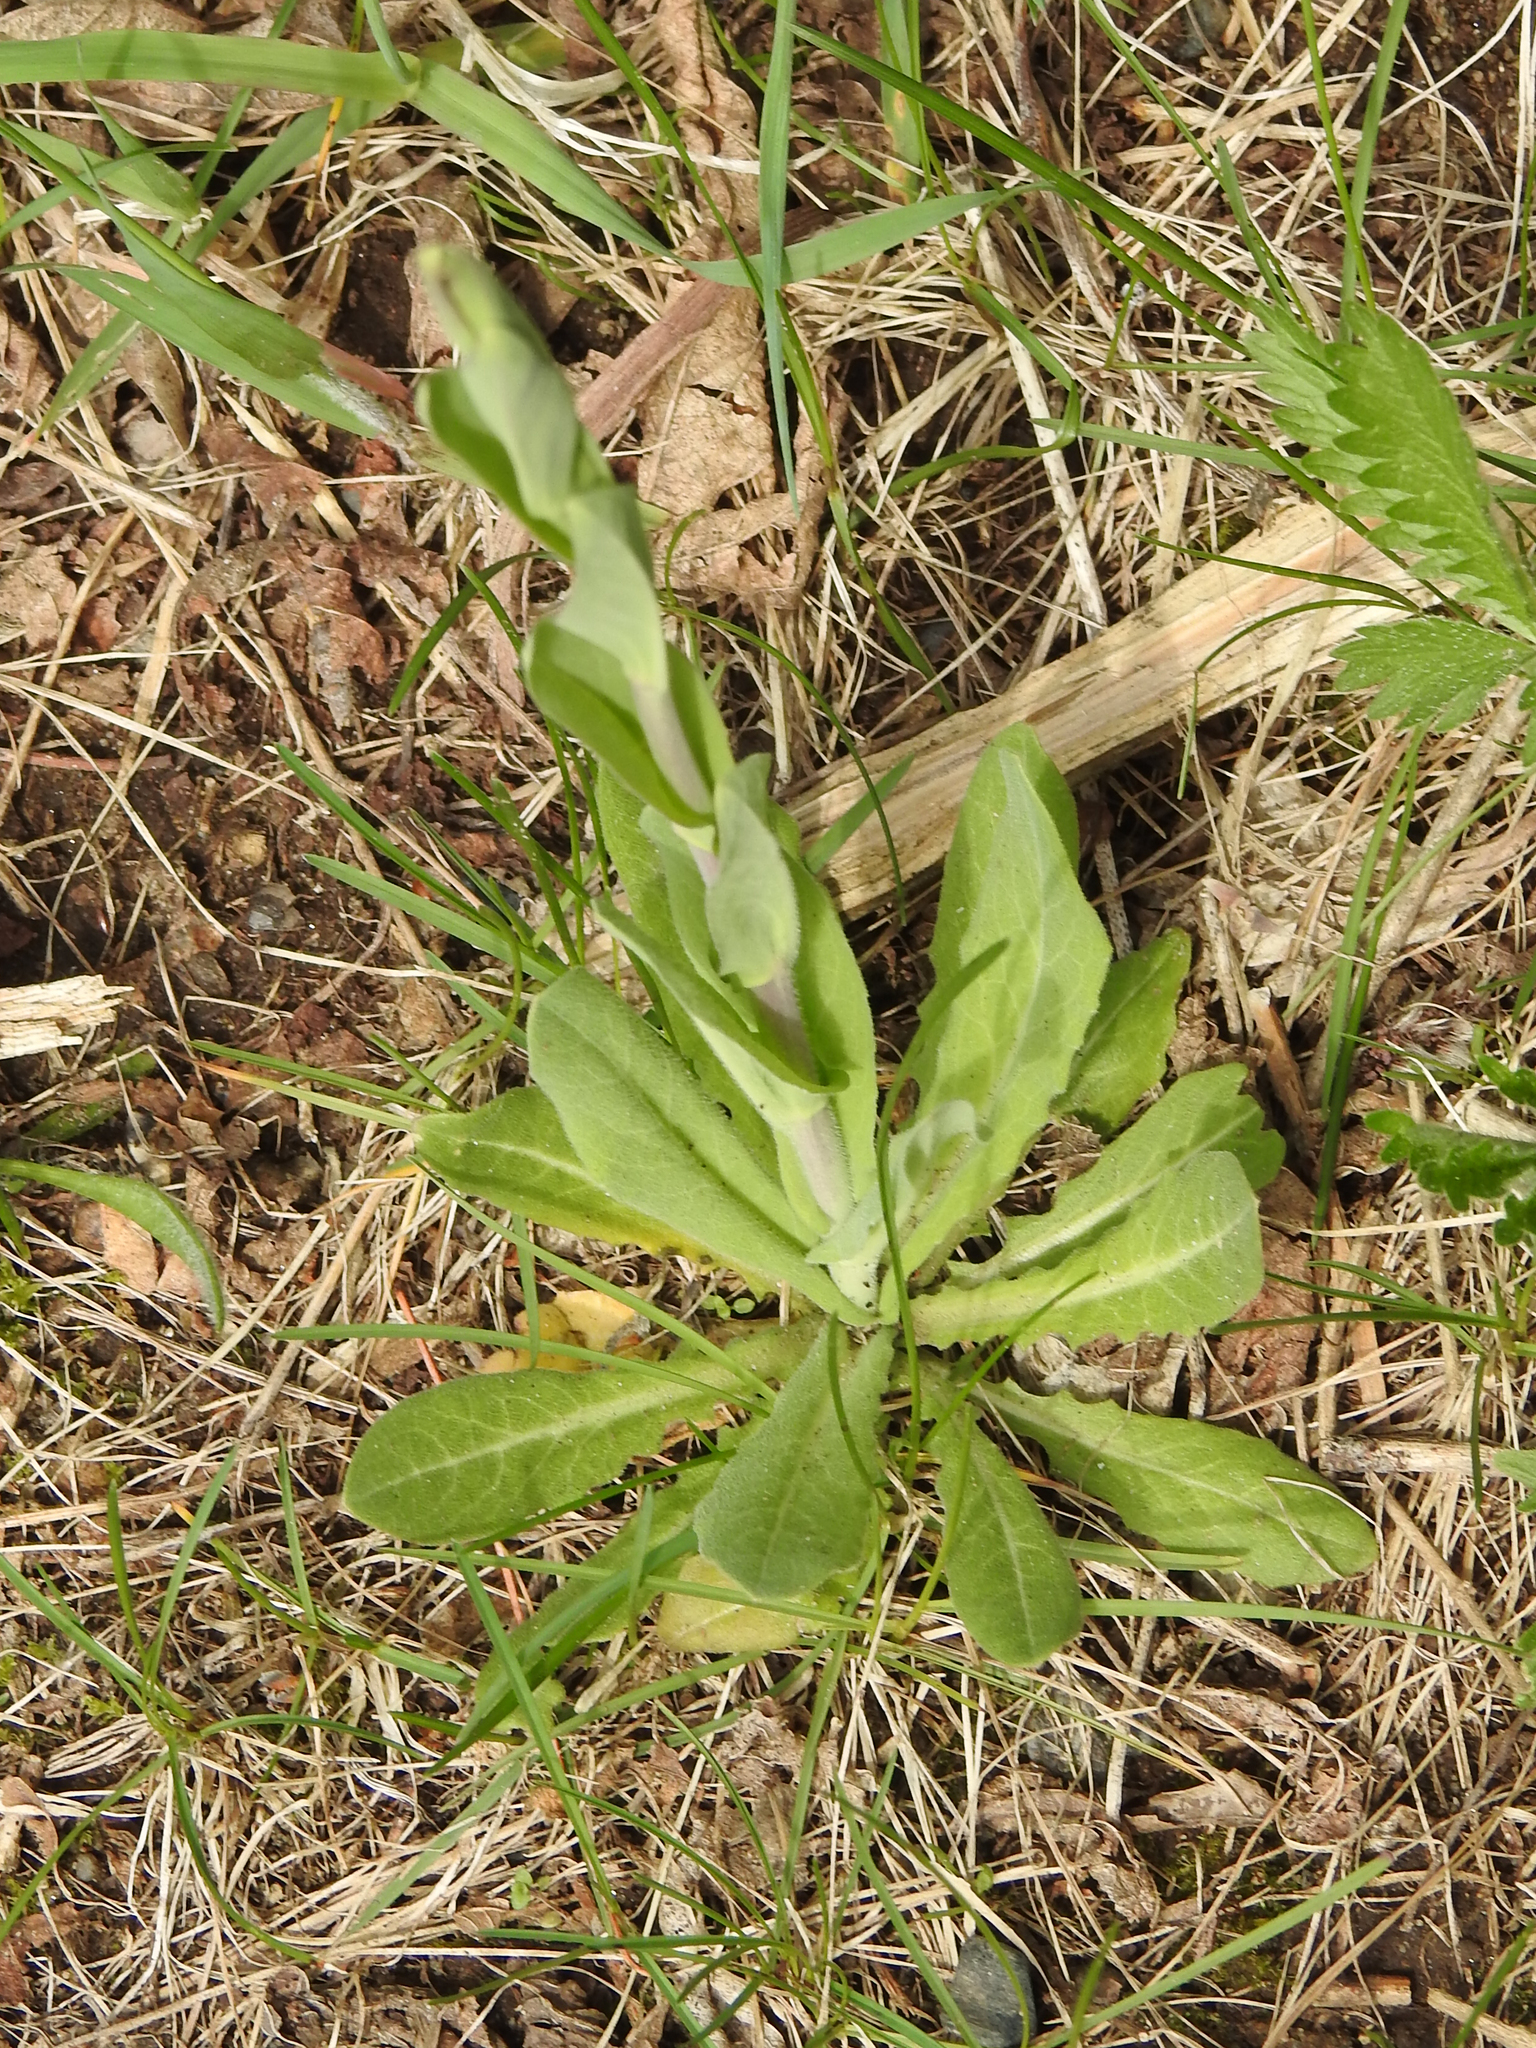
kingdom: Plantae
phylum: Tracheophyta
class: Magnoliopsida
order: Brassicales
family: Brassicaceae
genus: Turritis
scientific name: Turritis glabra
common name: Tower rockcress
